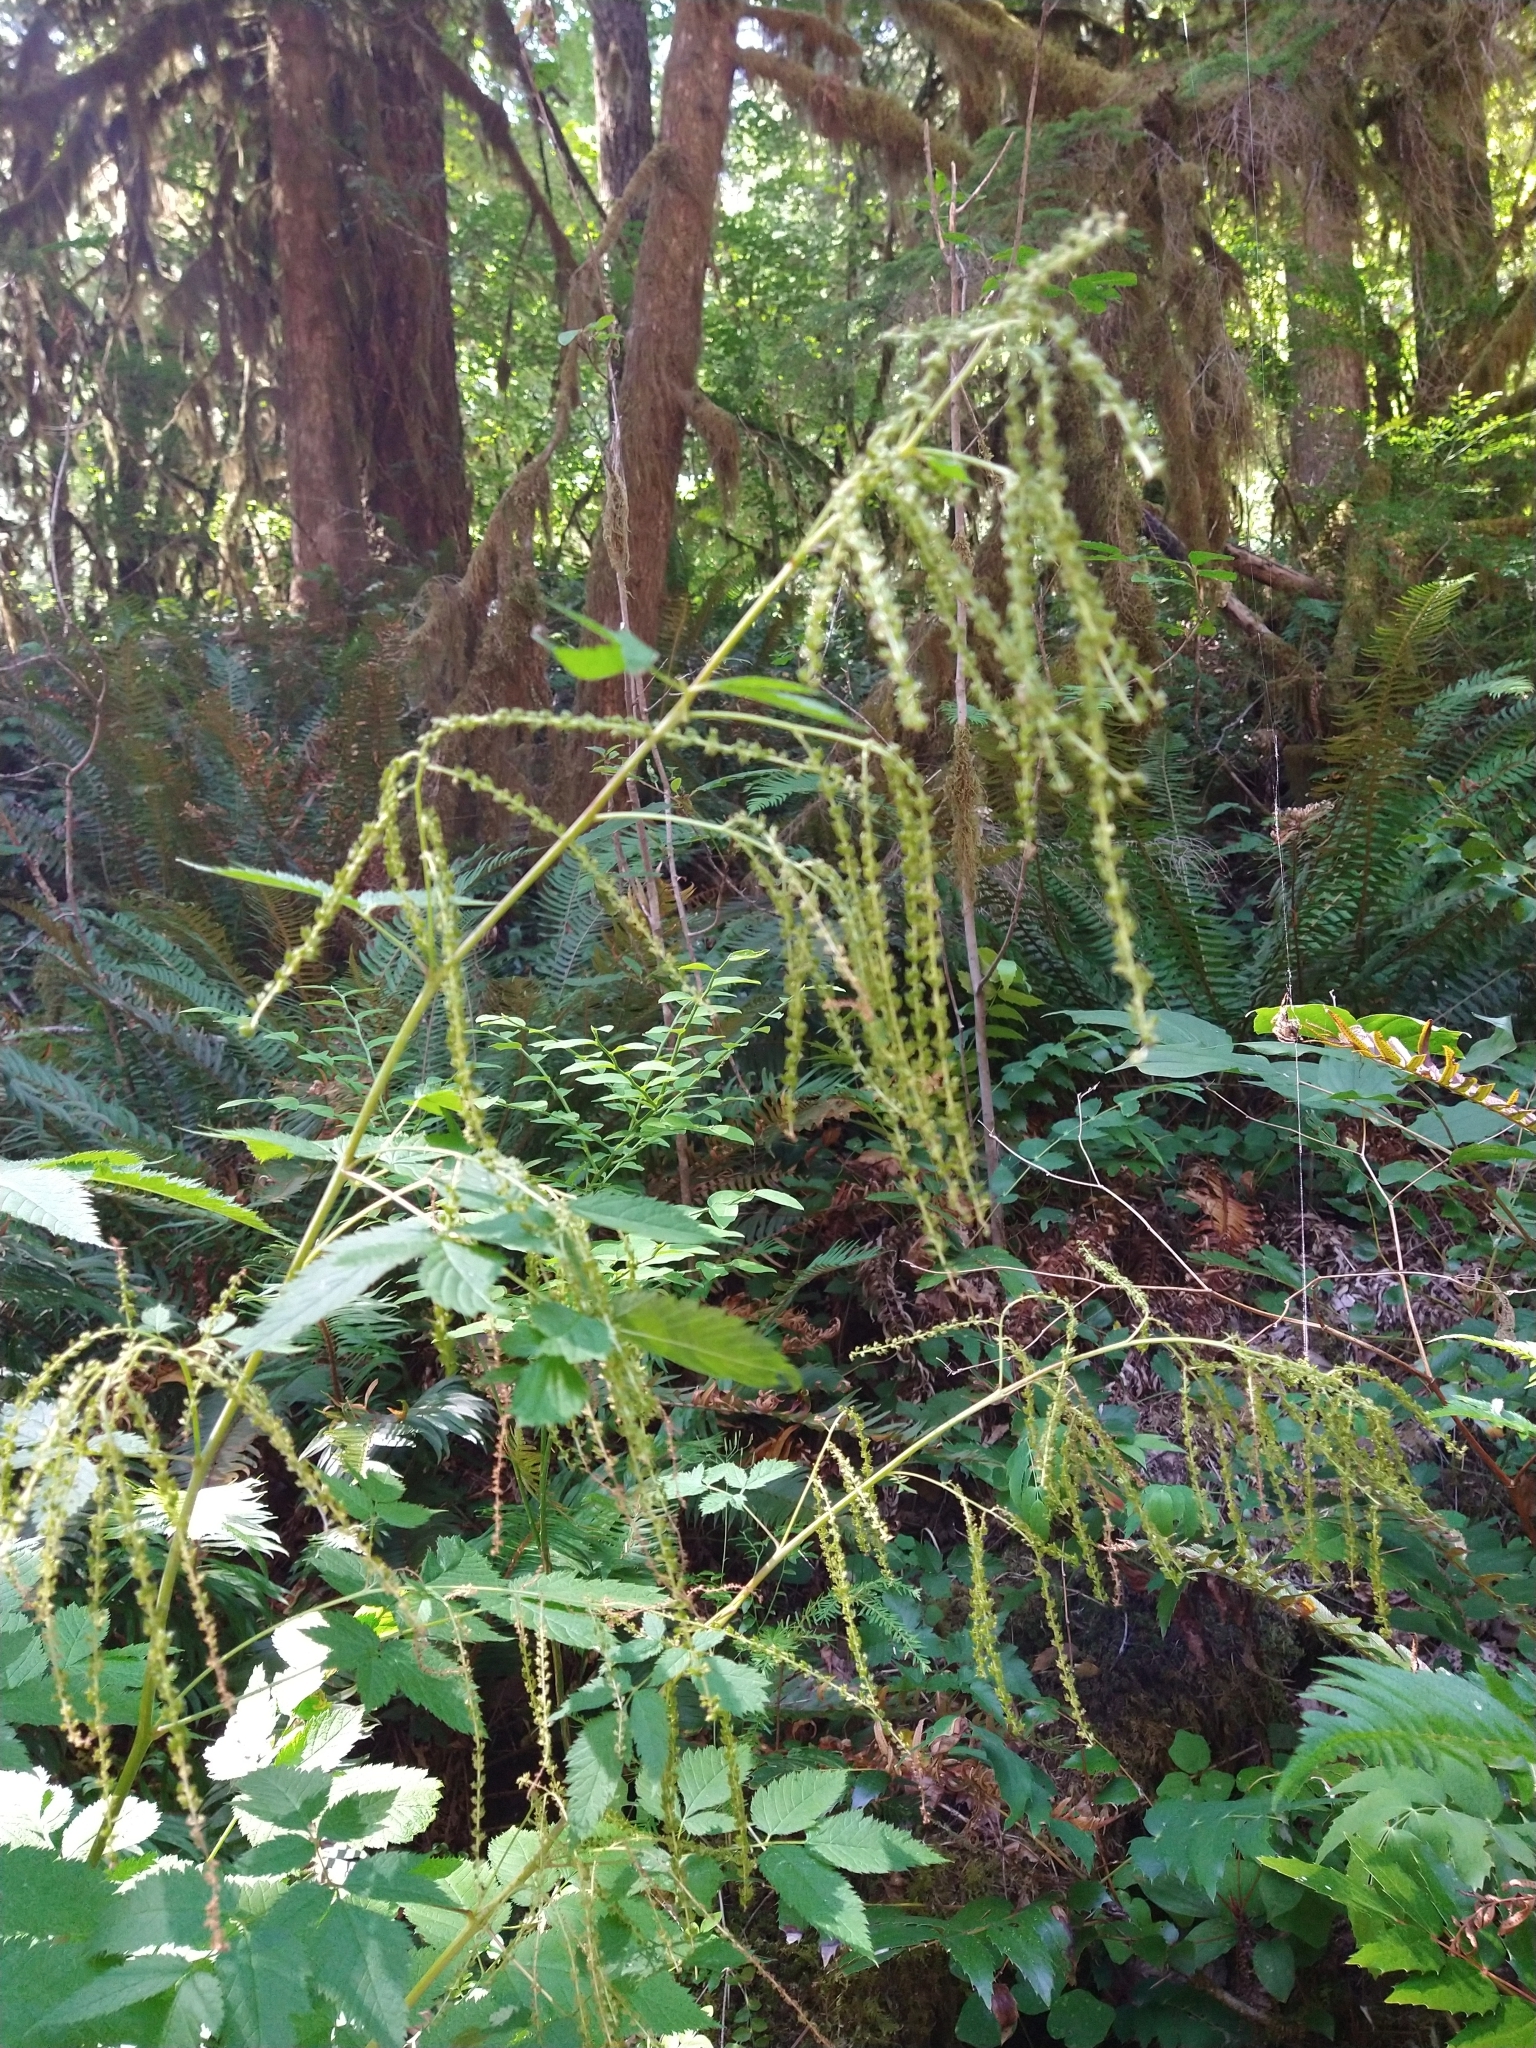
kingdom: Plantae
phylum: Tracheophyta
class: Magnoliopsida
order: Rosales
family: Rosaceae
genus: Aruncus
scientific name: Aruncus dioicus
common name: Buck's-beard
